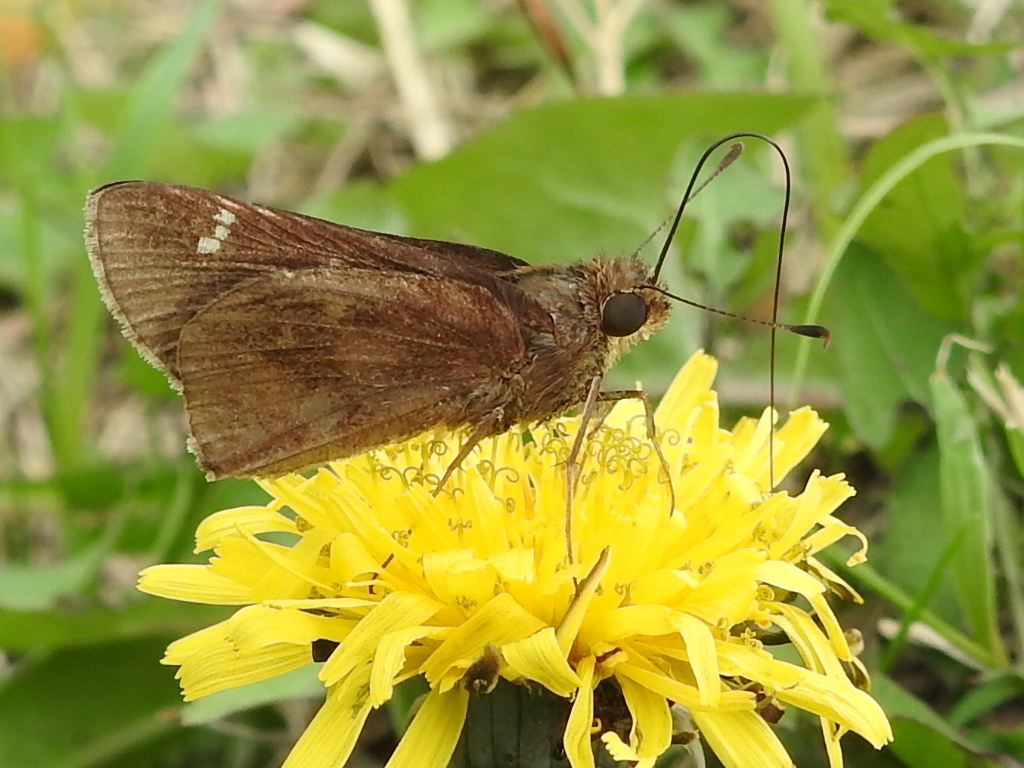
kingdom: Animalia
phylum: Arthropoda
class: Insecta
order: Lepidoptera
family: Hesperiidae
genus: Lerema
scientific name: Lerema accius
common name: Clouded skipper
